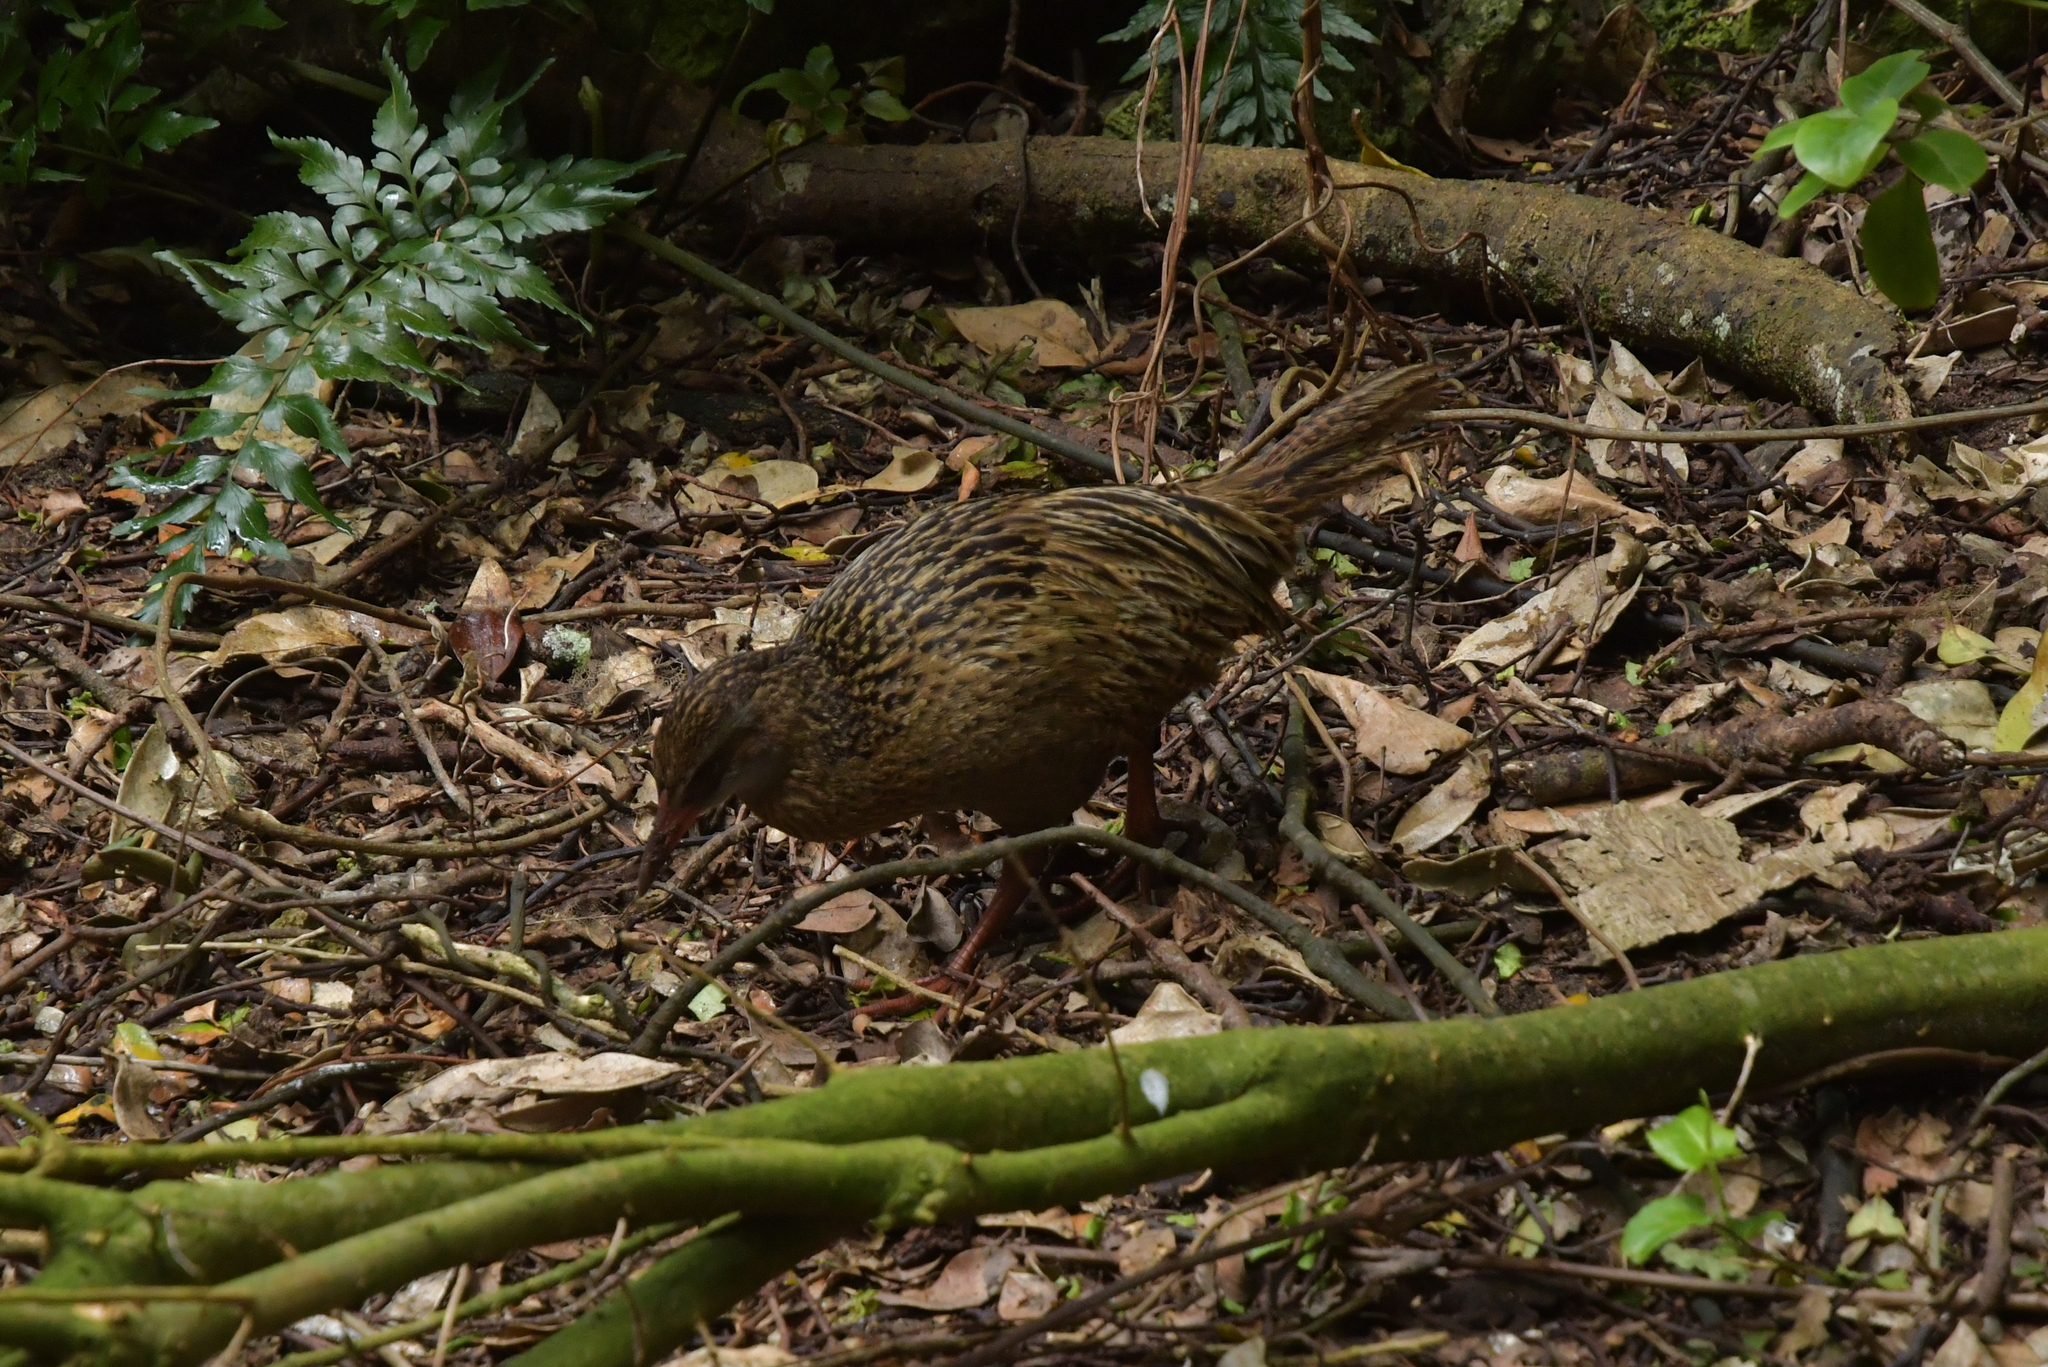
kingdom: Animalia
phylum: Chordata
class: Aves
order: Gruiformes
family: Rallidae
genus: Gallirallus
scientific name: Gallirallus australis
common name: Weka
